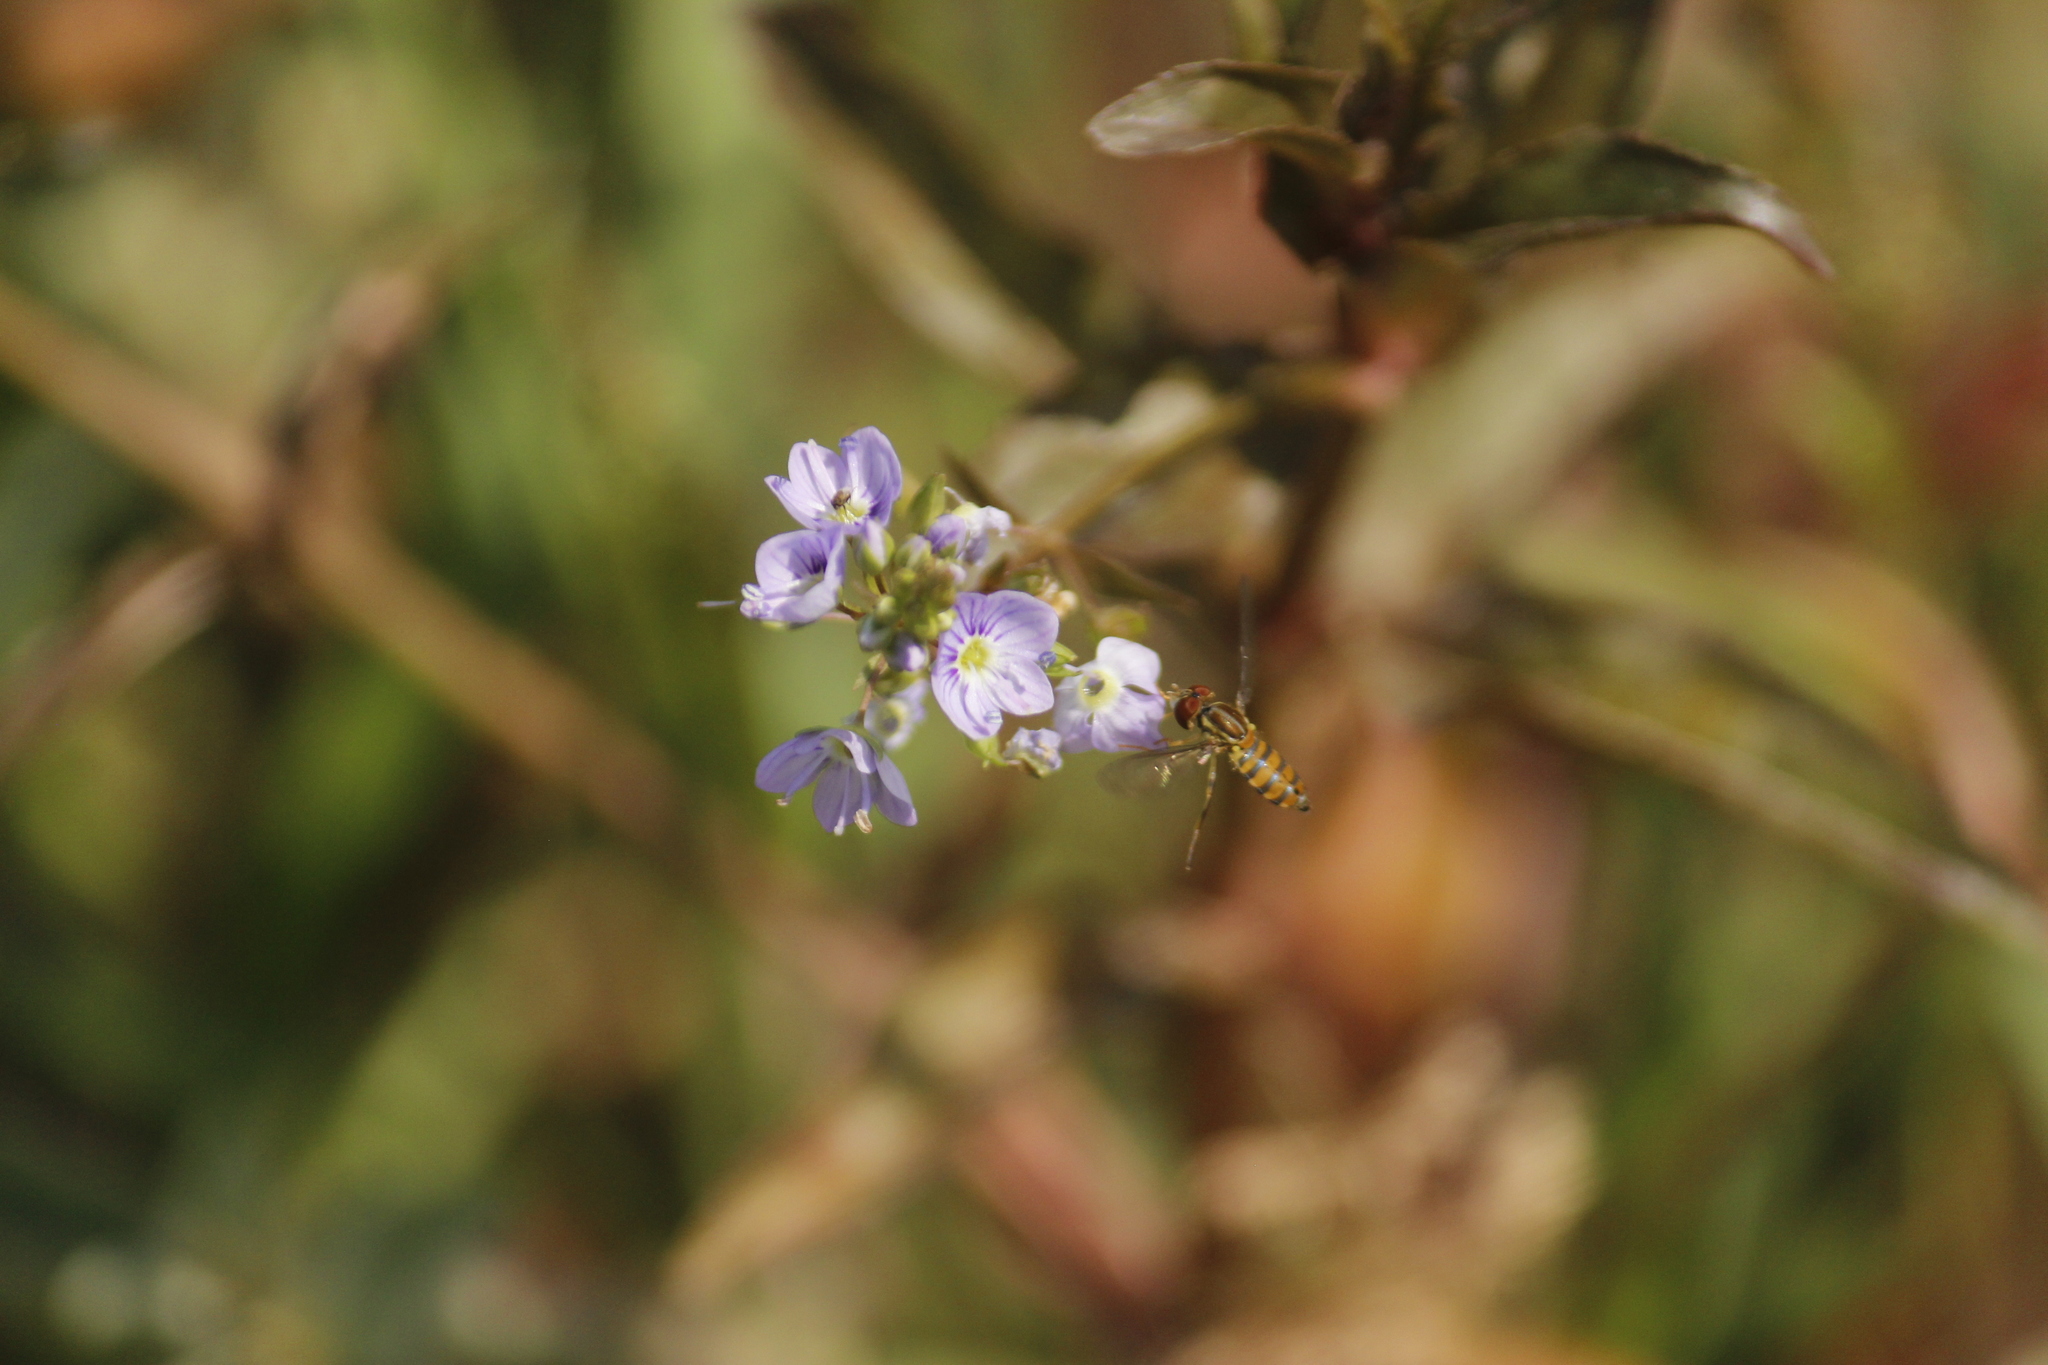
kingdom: Plantae
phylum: Tracheophyta
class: Magnoliopsida
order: Lamiales
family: Plantaginaceae
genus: Veronica
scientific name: Veronica anagallis-aquatica
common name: Water speedwell
